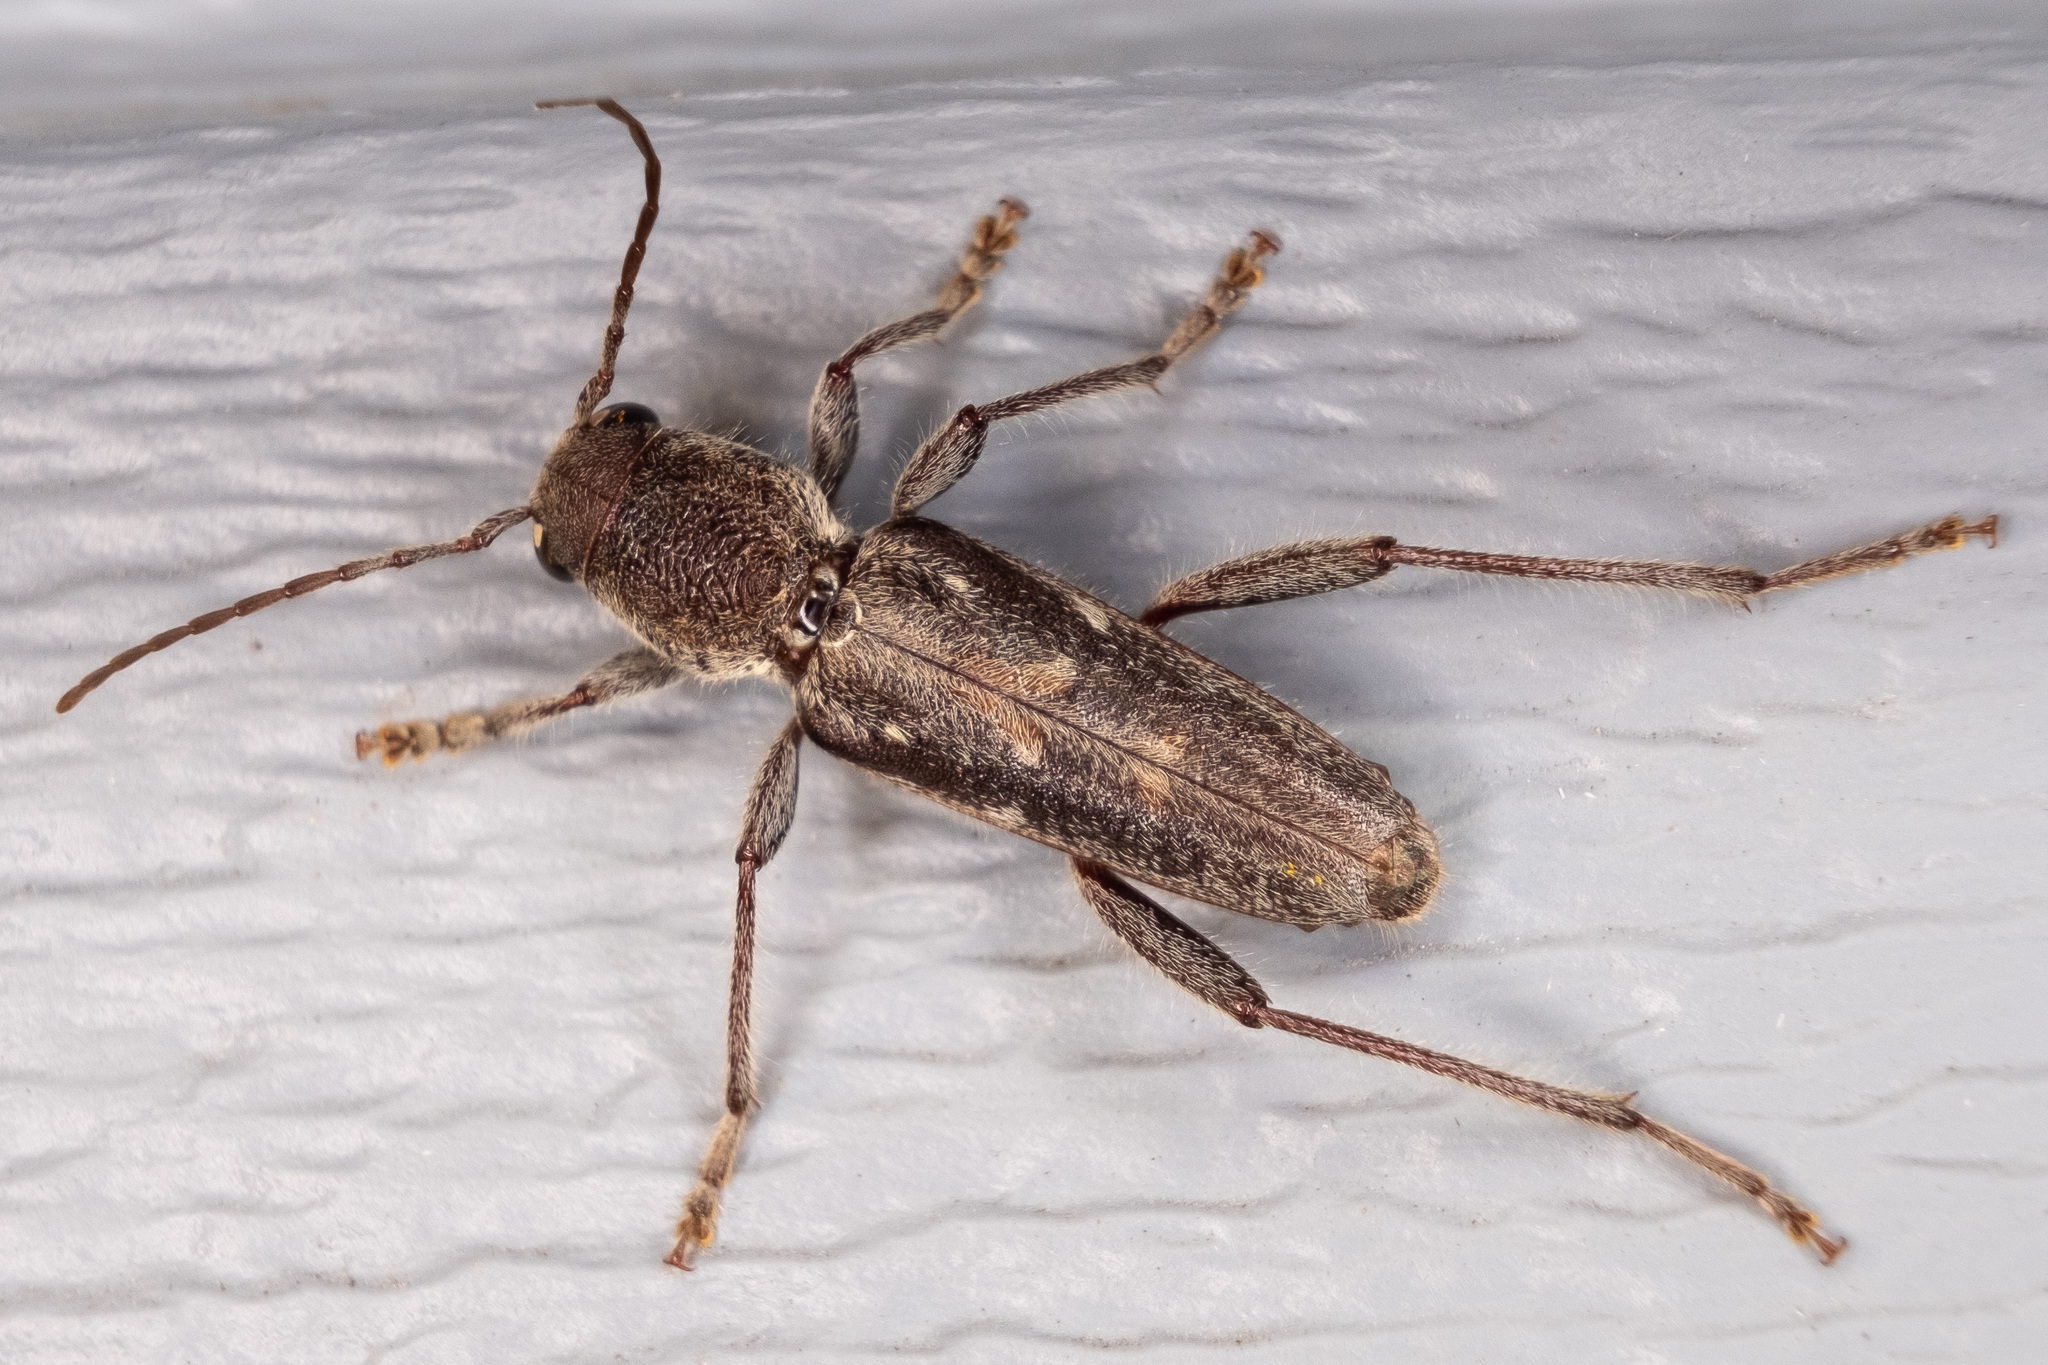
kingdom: Animalia
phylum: Arthropoda
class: Insecta
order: Coleoptera
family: Cerambycidae
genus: Xylotrechus
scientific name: Xylotrechus sagittatus
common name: Arrowhead borer
